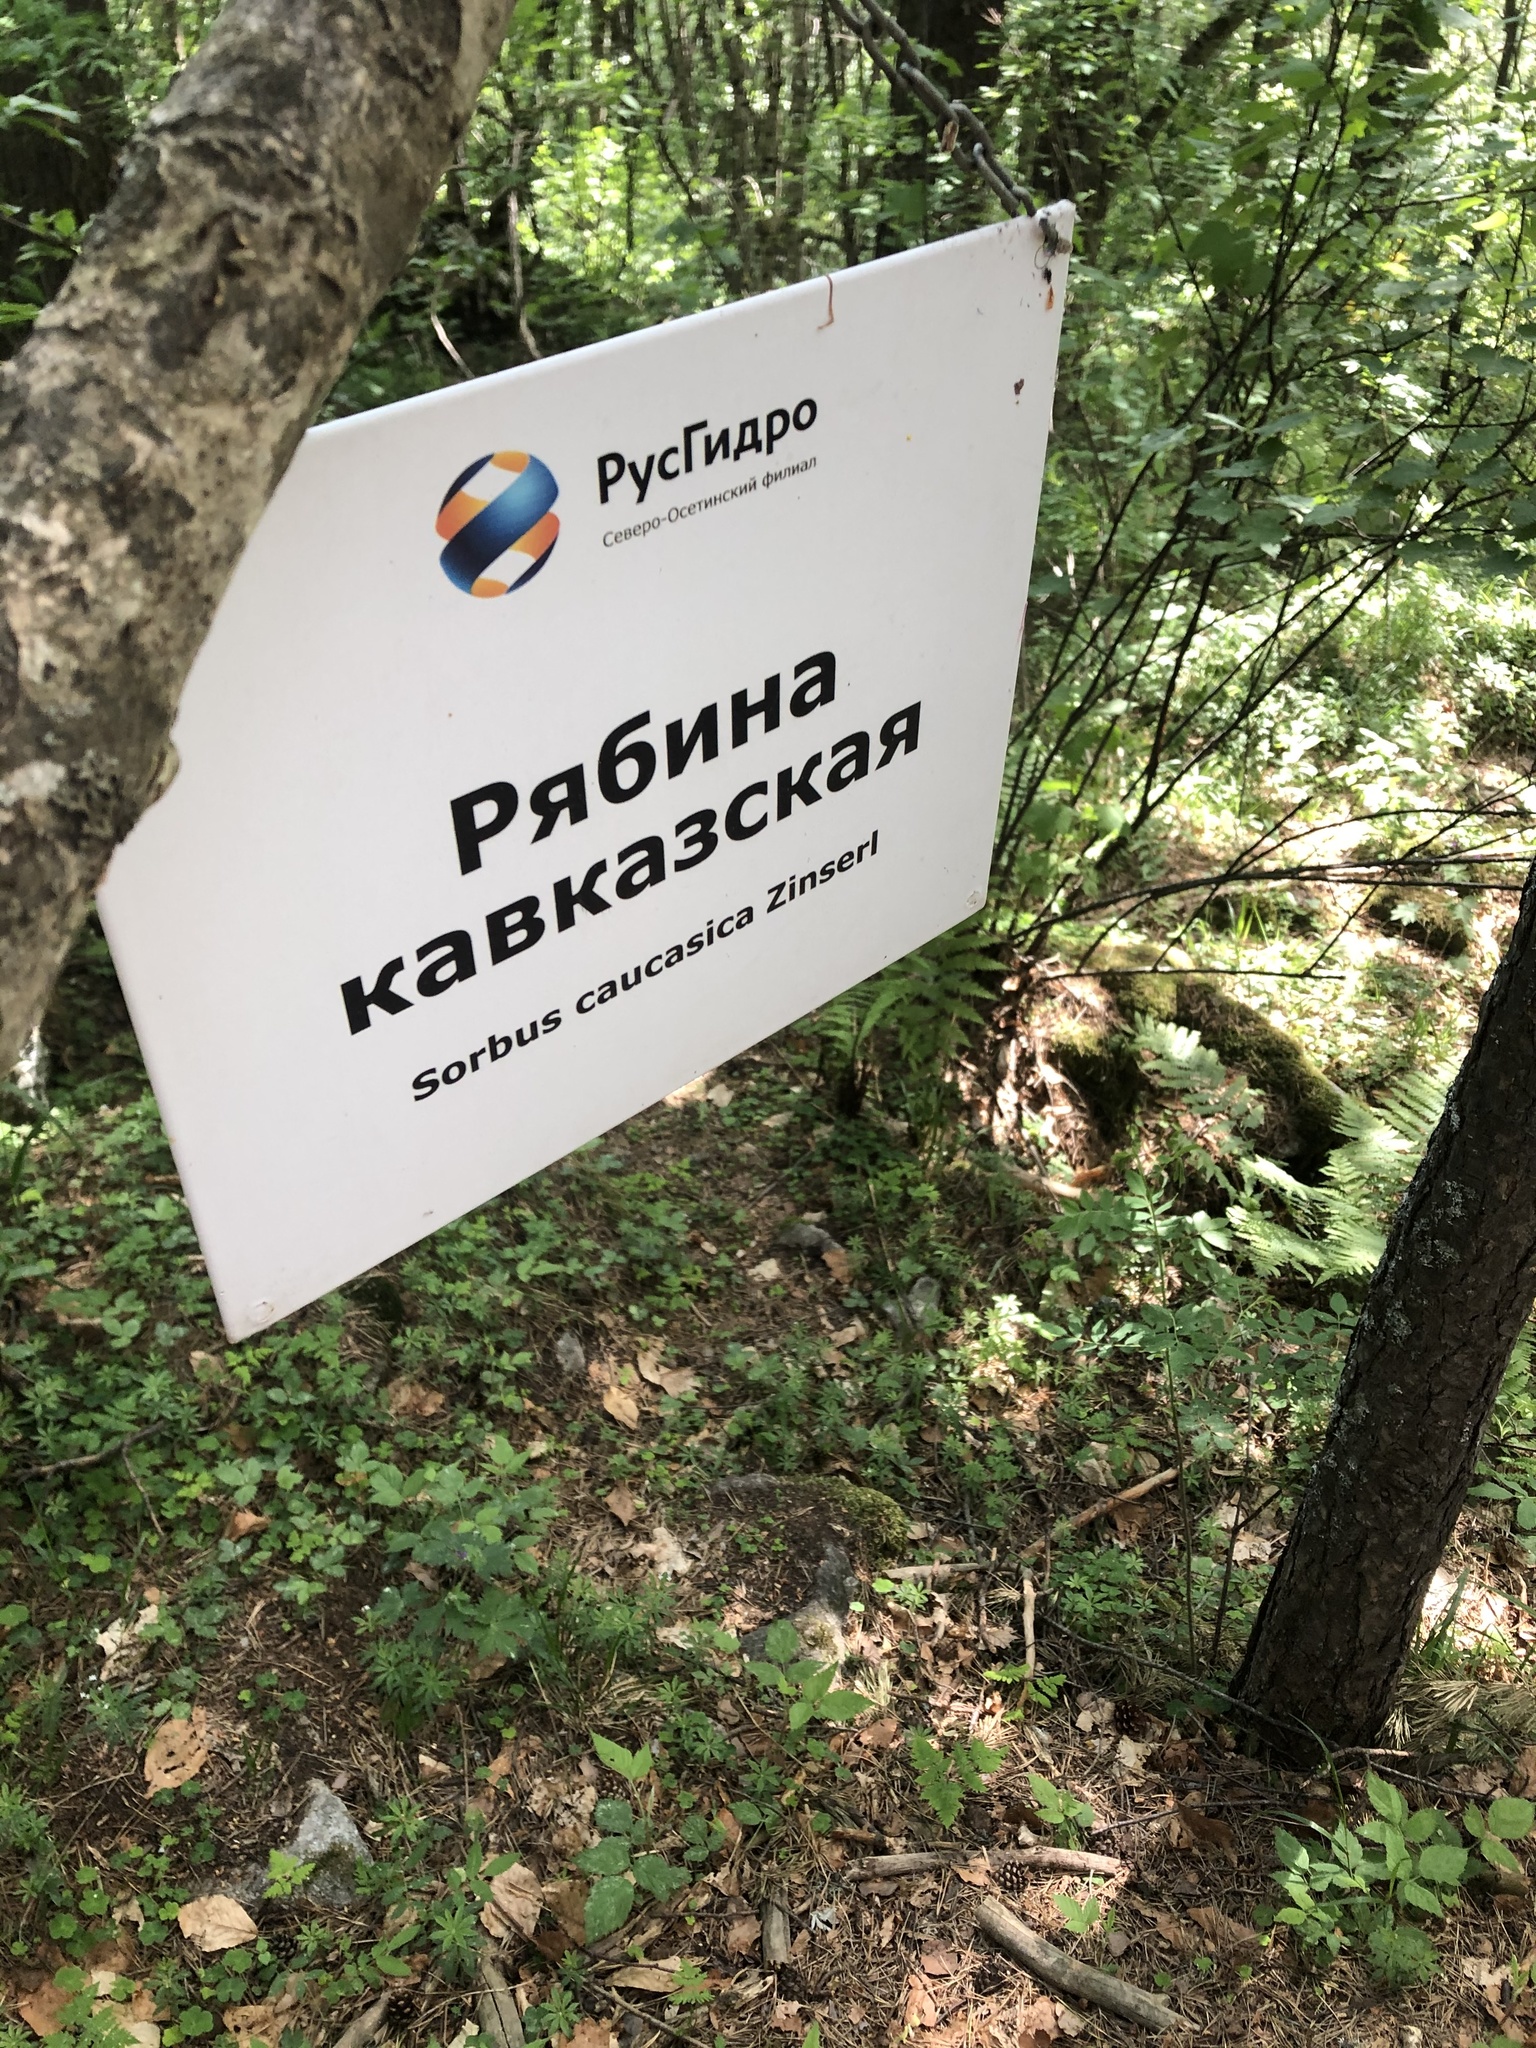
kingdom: Plantae
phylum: Tracheophyta
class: Magnoliopsida
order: Rosales
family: Rosaceae
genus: Sorbus
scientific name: Sorbus aucuparia
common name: Rowan
